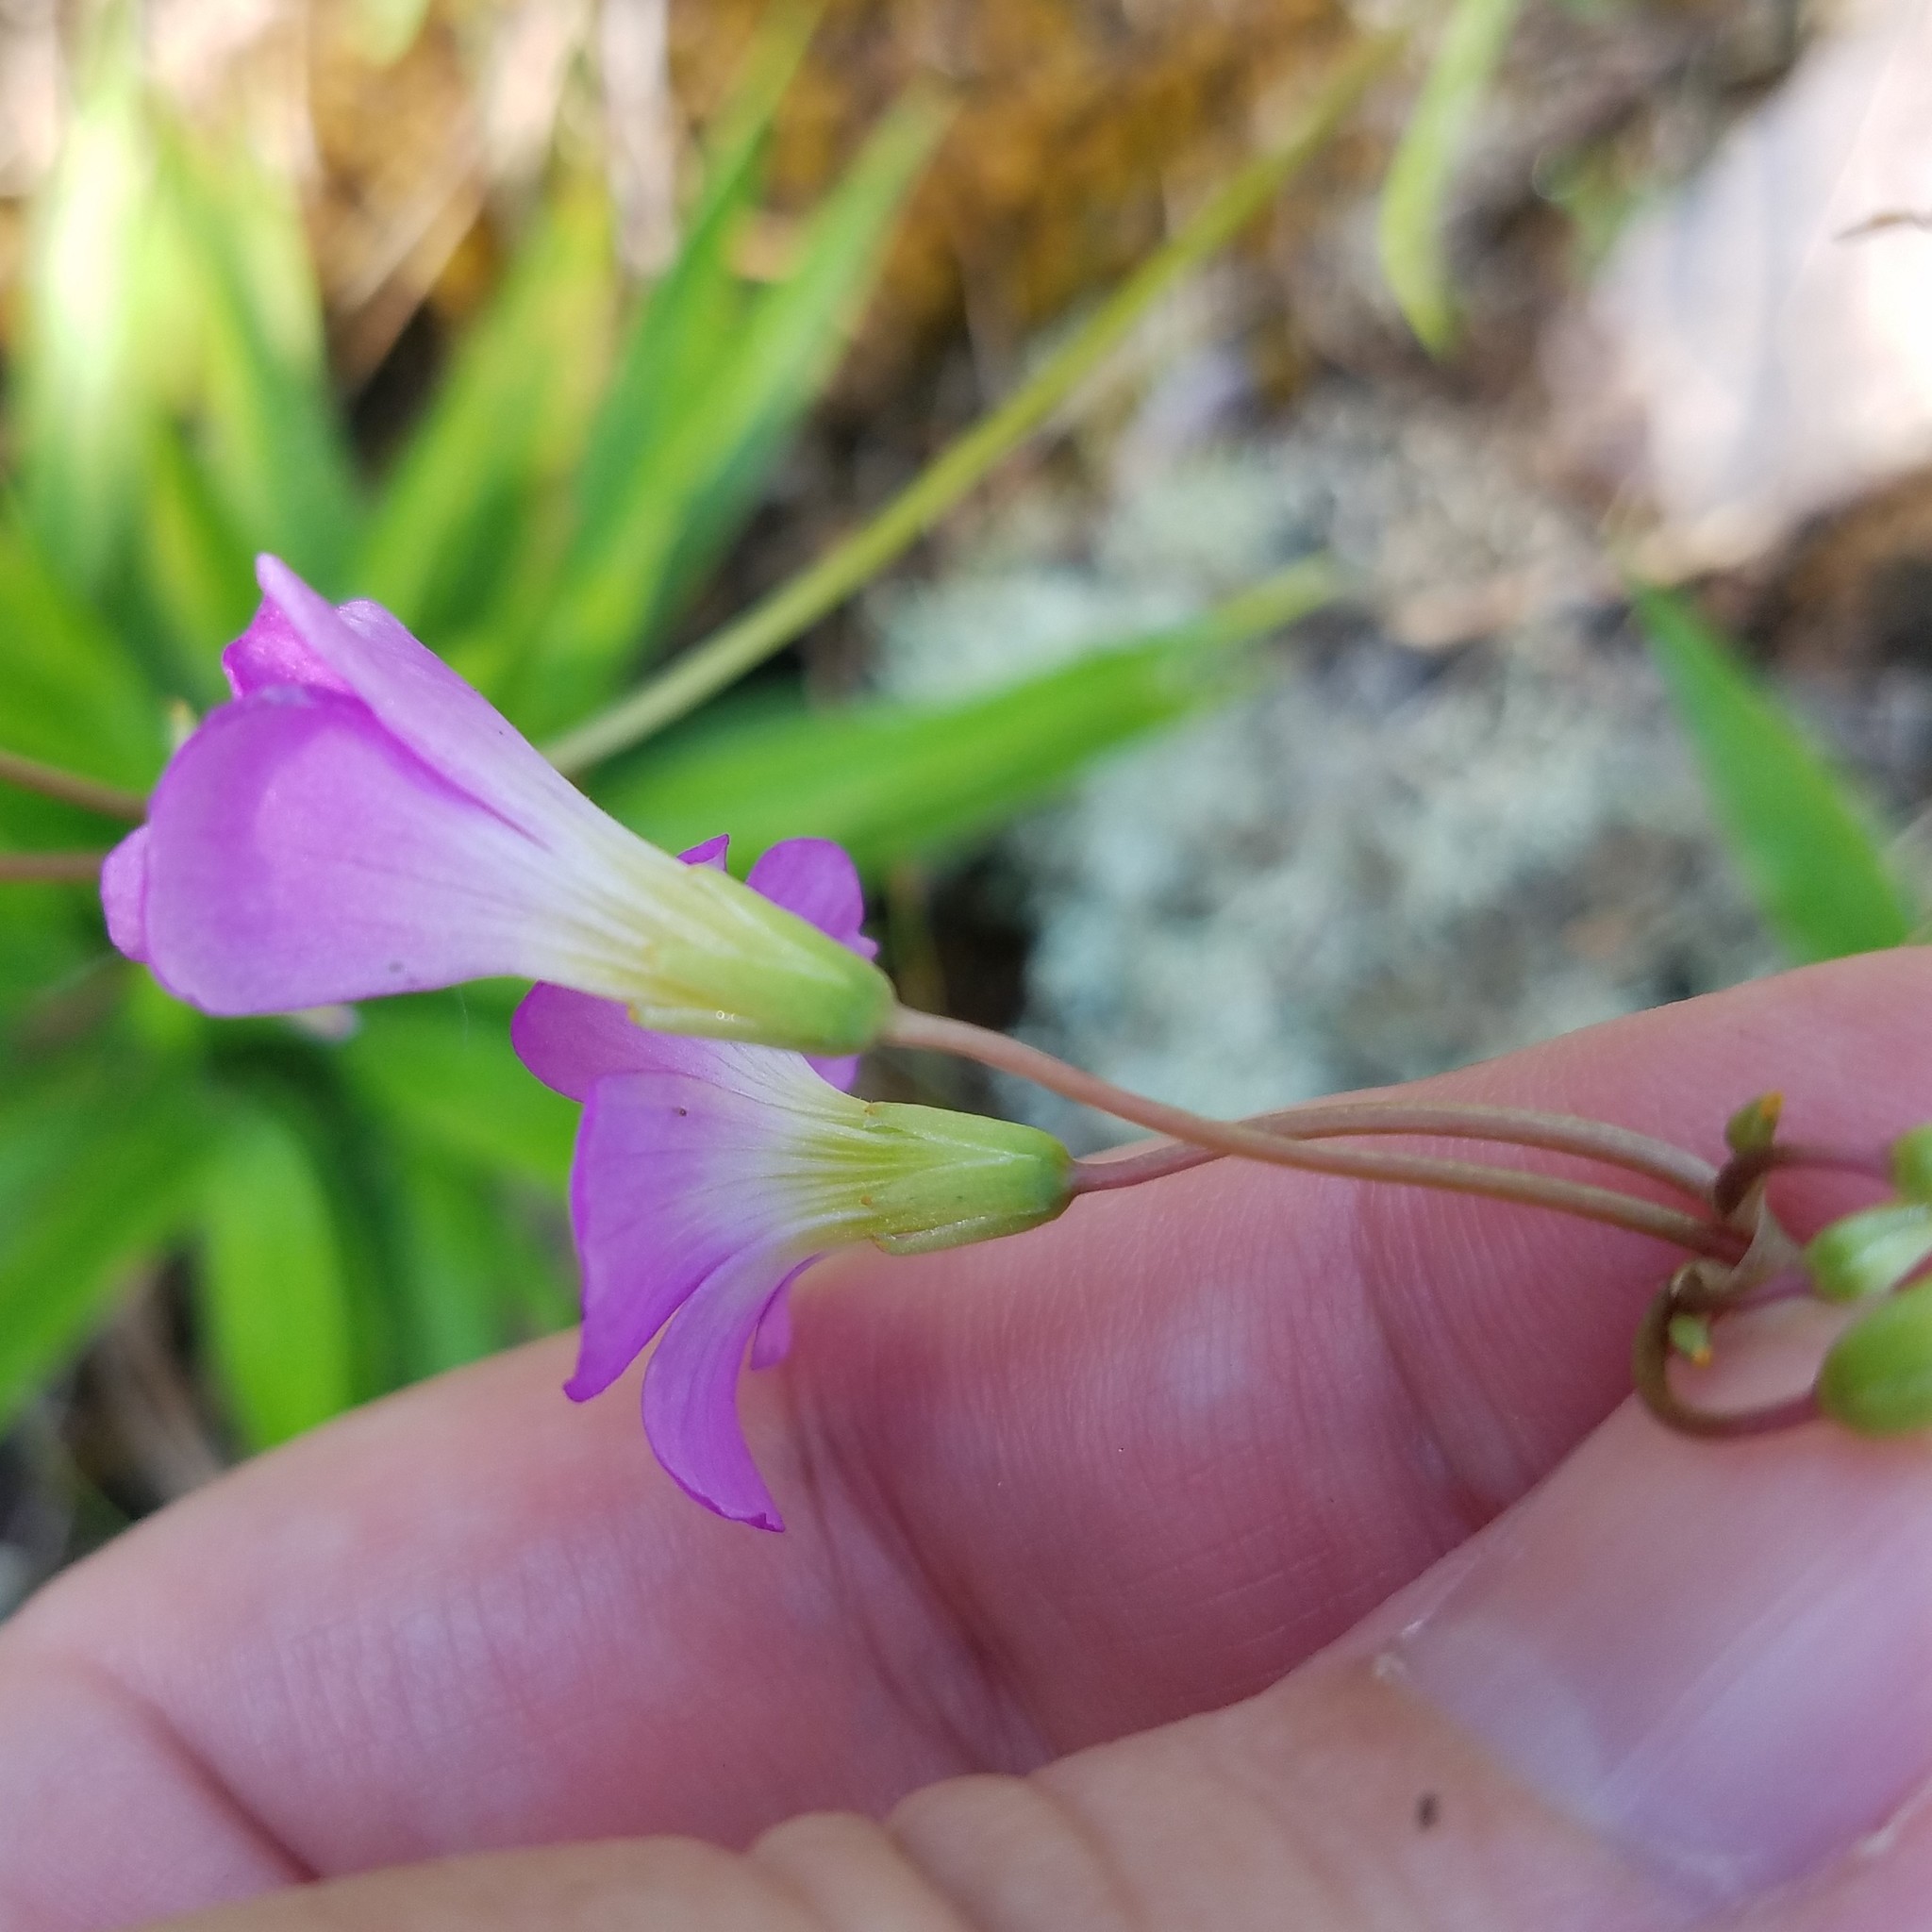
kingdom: Plantae
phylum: Tracheophyta
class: Magnoliopsida
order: Oxalidales
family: Oxalidaceae
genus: Oxalis
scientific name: Oxalis violacea
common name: Violet wood-sorrel
